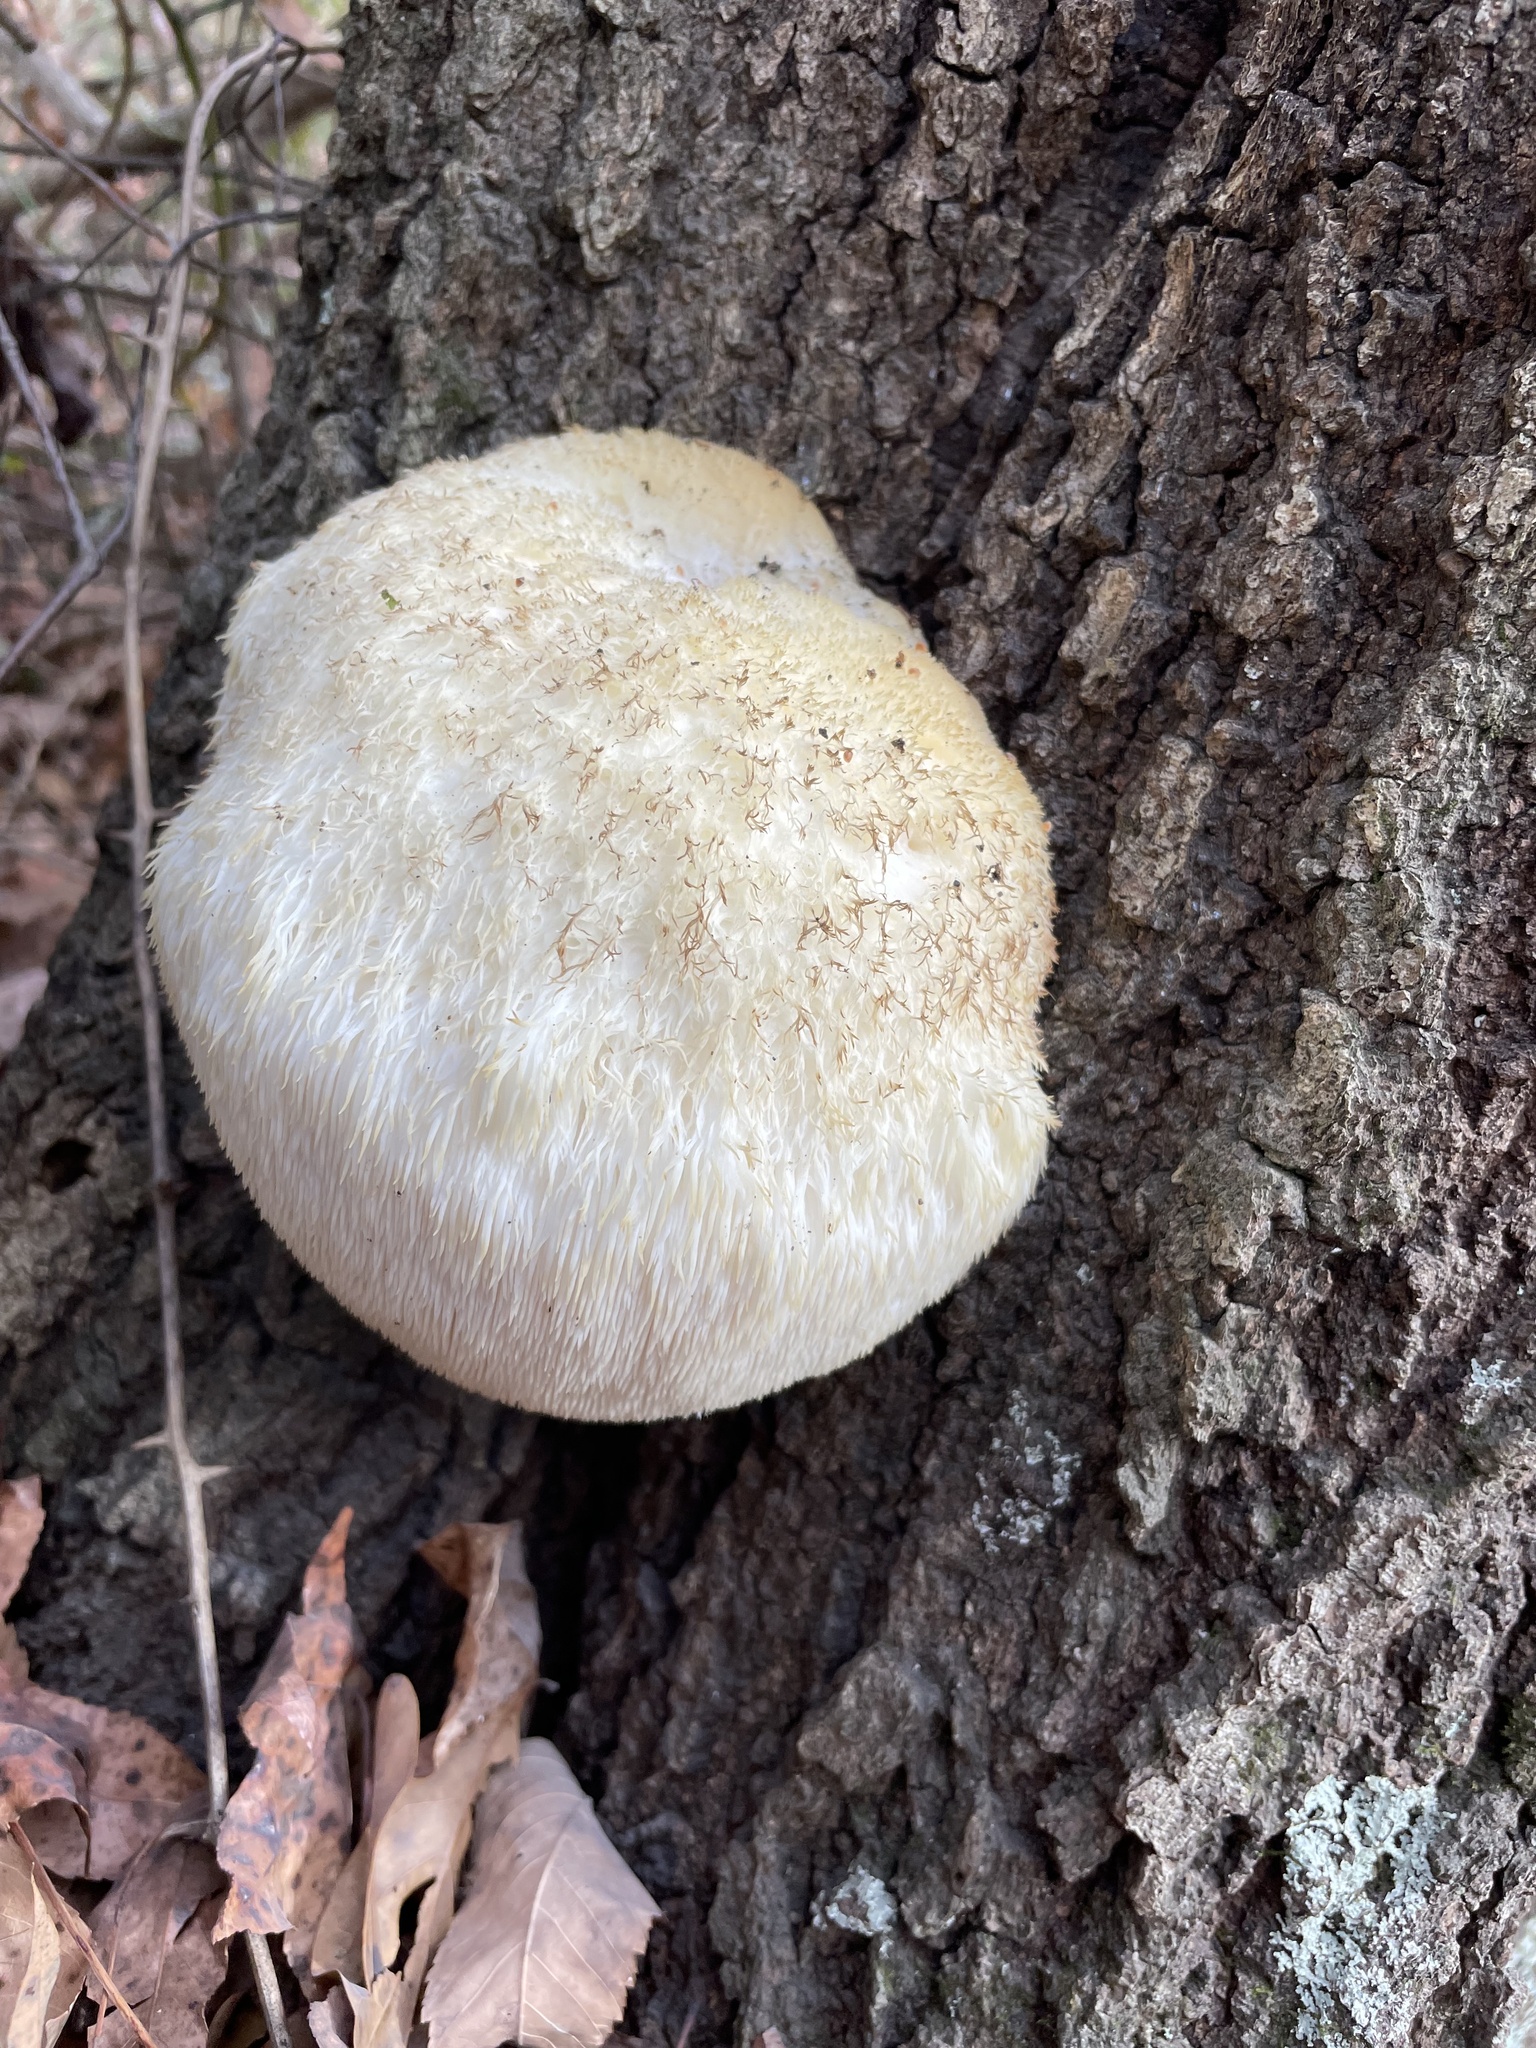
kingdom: Fungi
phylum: Basidiomycota
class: Agaricomycetes
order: Russulales
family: Hericiaceae
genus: Hericium
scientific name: Hericium erinaceus
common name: Bearded tooth
